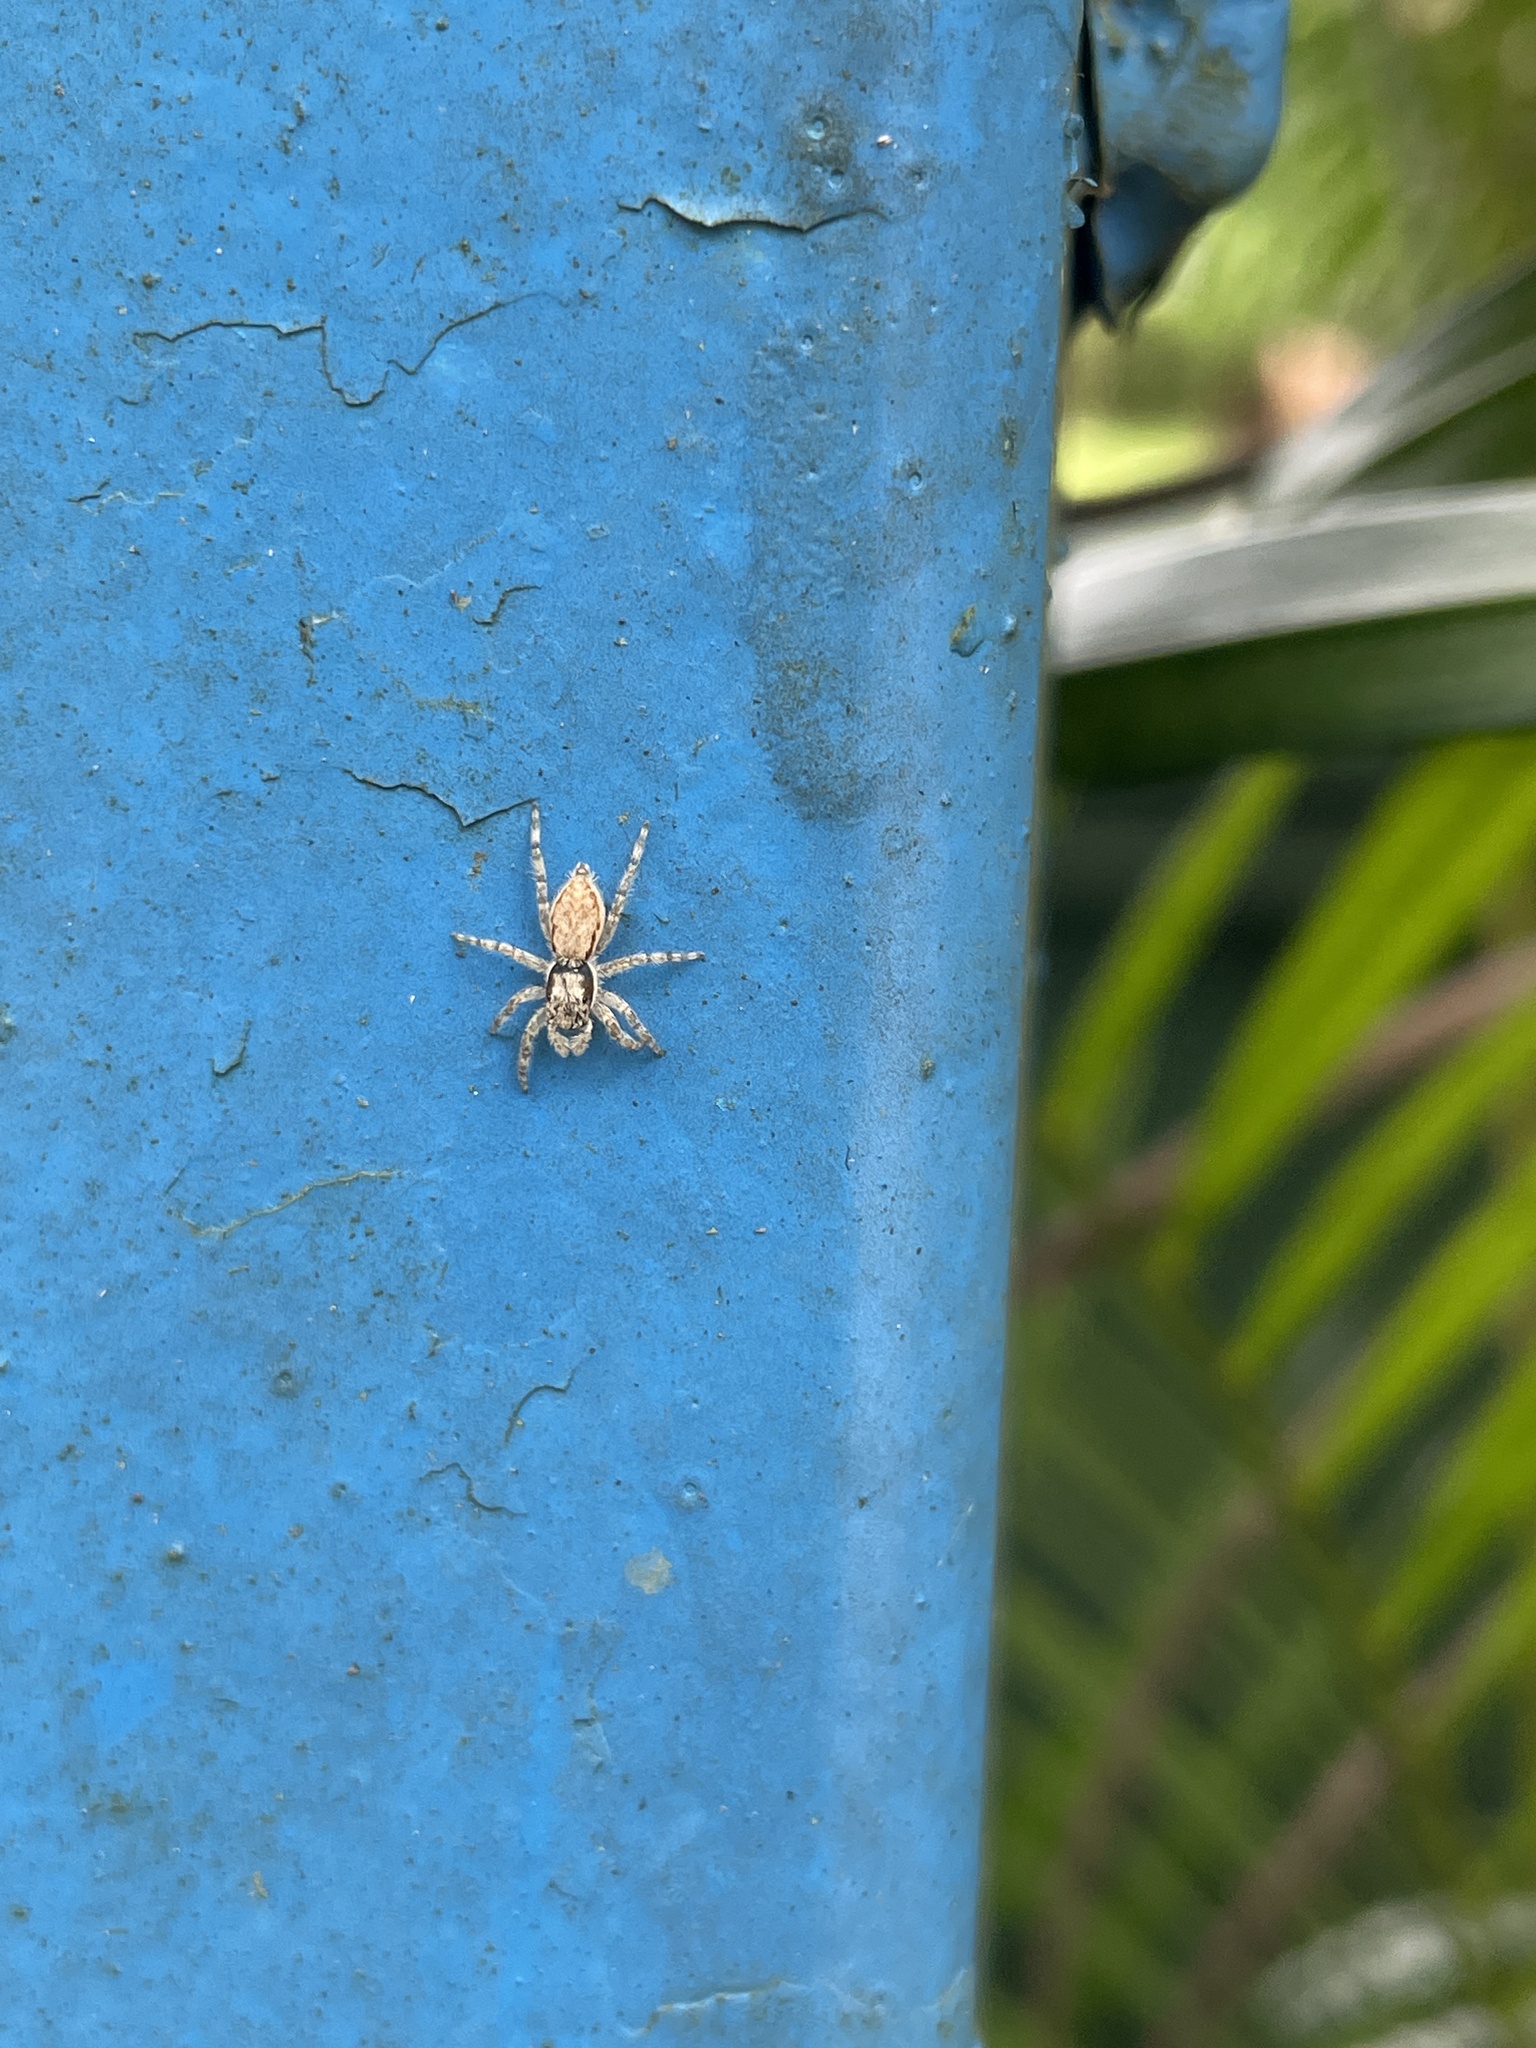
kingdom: Animalia
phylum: Arthropoda
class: Arachnida
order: Araneae
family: Salticidae
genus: Menemerus
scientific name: Menemerus bivittatus
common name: Gray wall jumper
